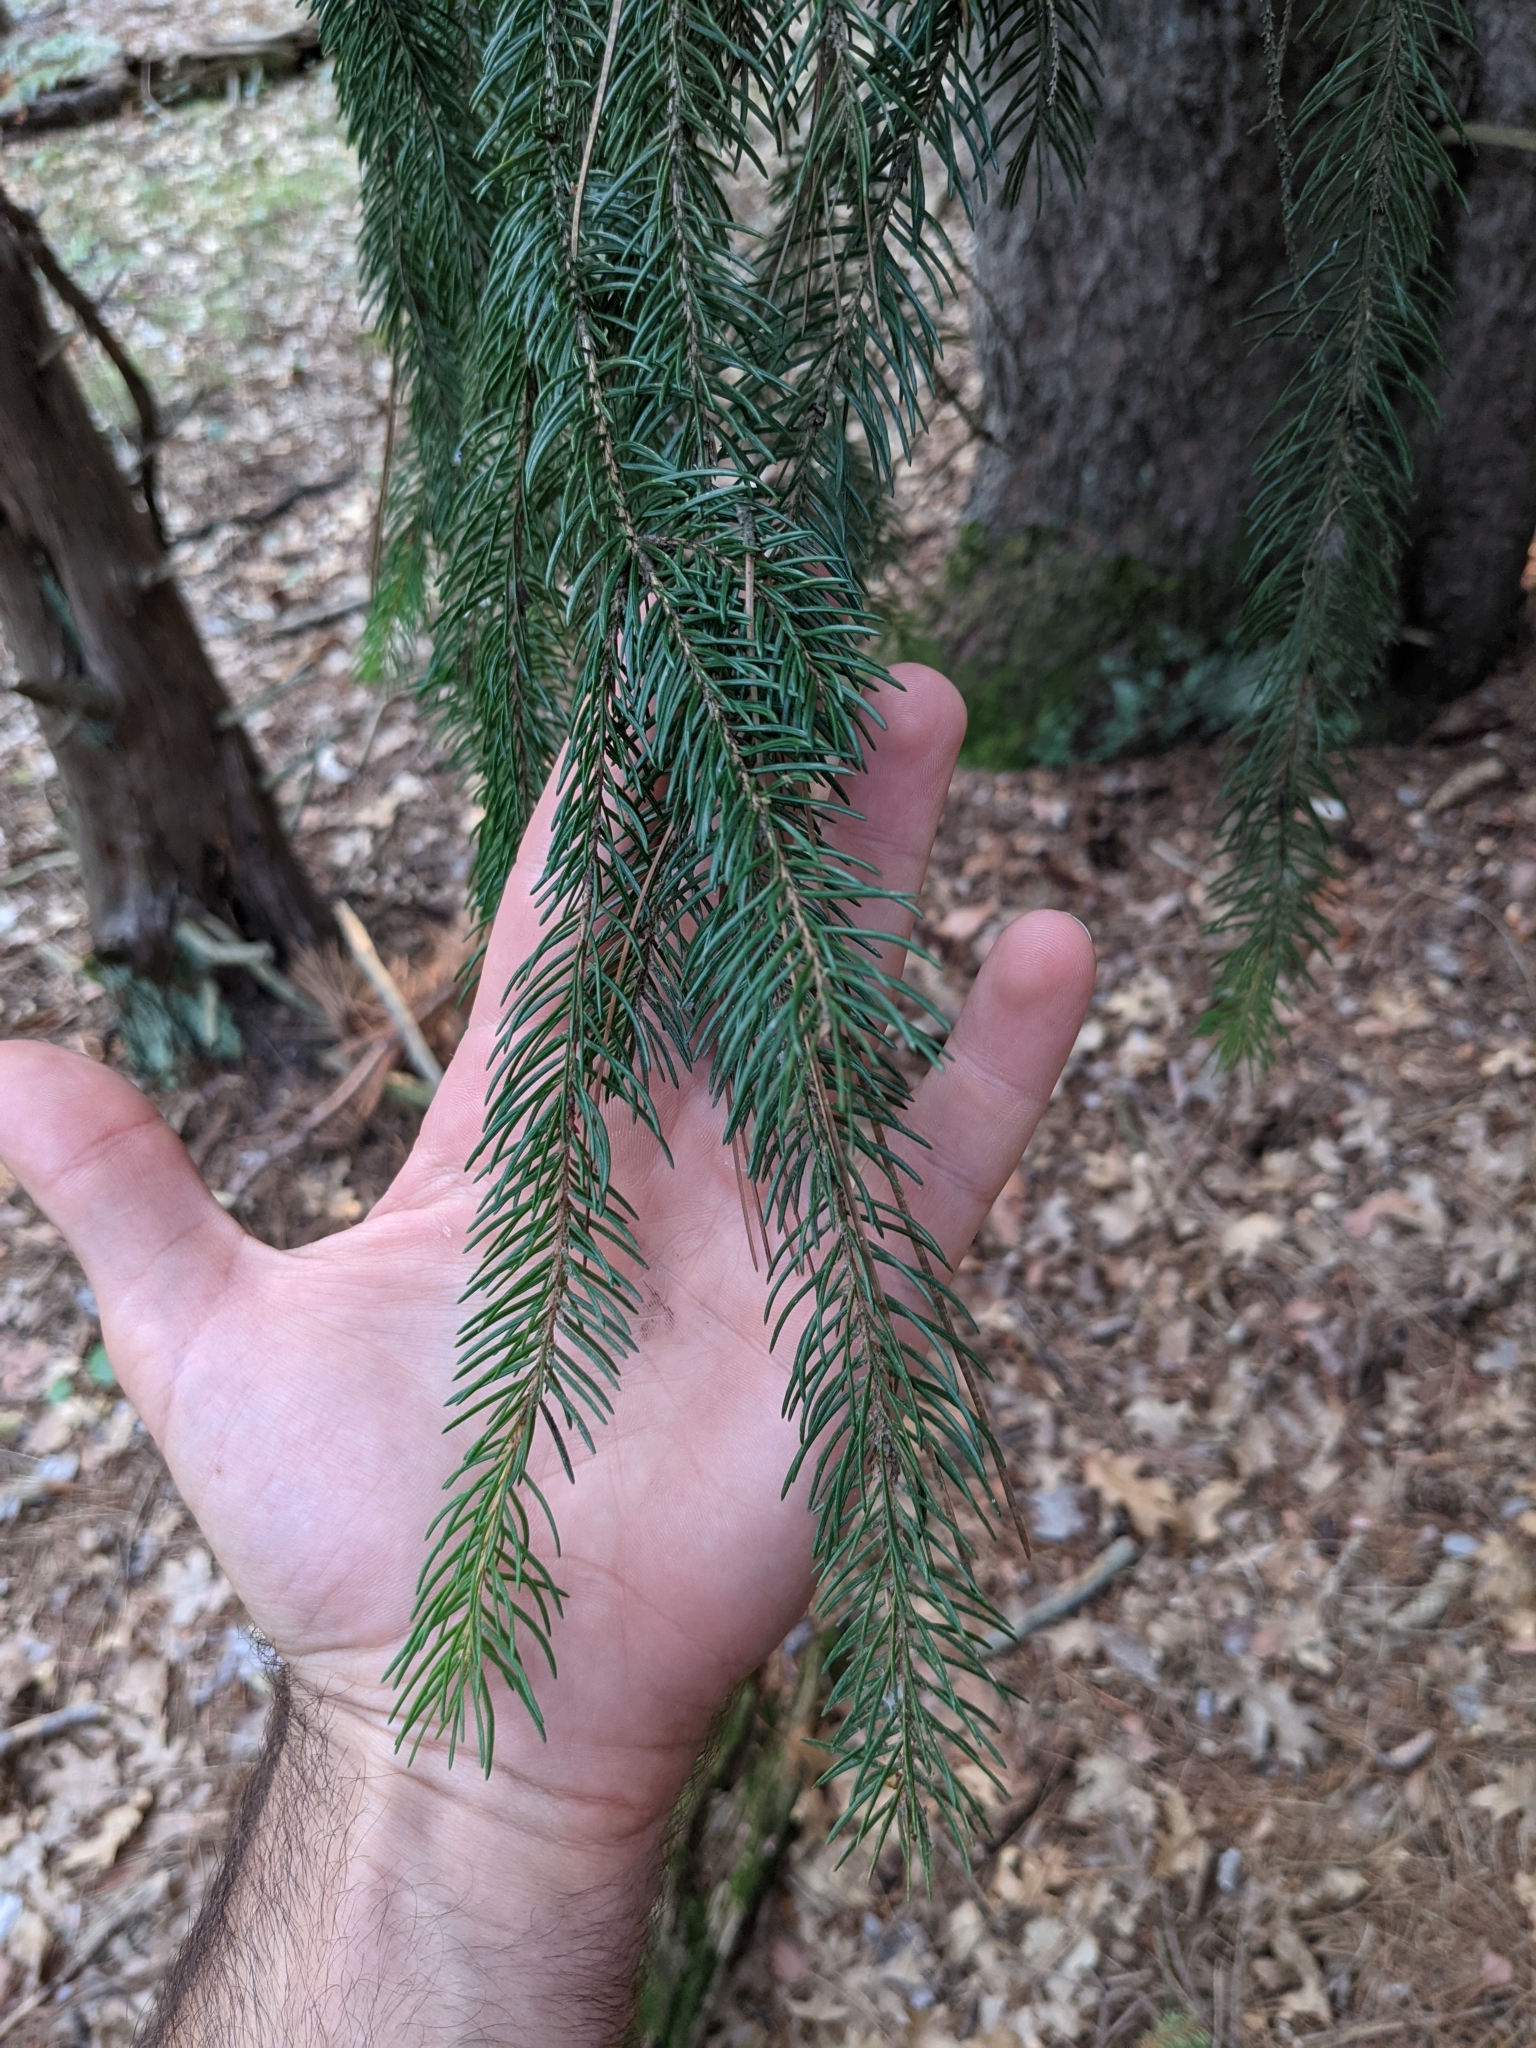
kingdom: Plantae
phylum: Tracheophyta
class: Pinopsida
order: Pinales
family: Pinaceae
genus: Picea
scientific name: Picea abies
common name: Norway spruce
